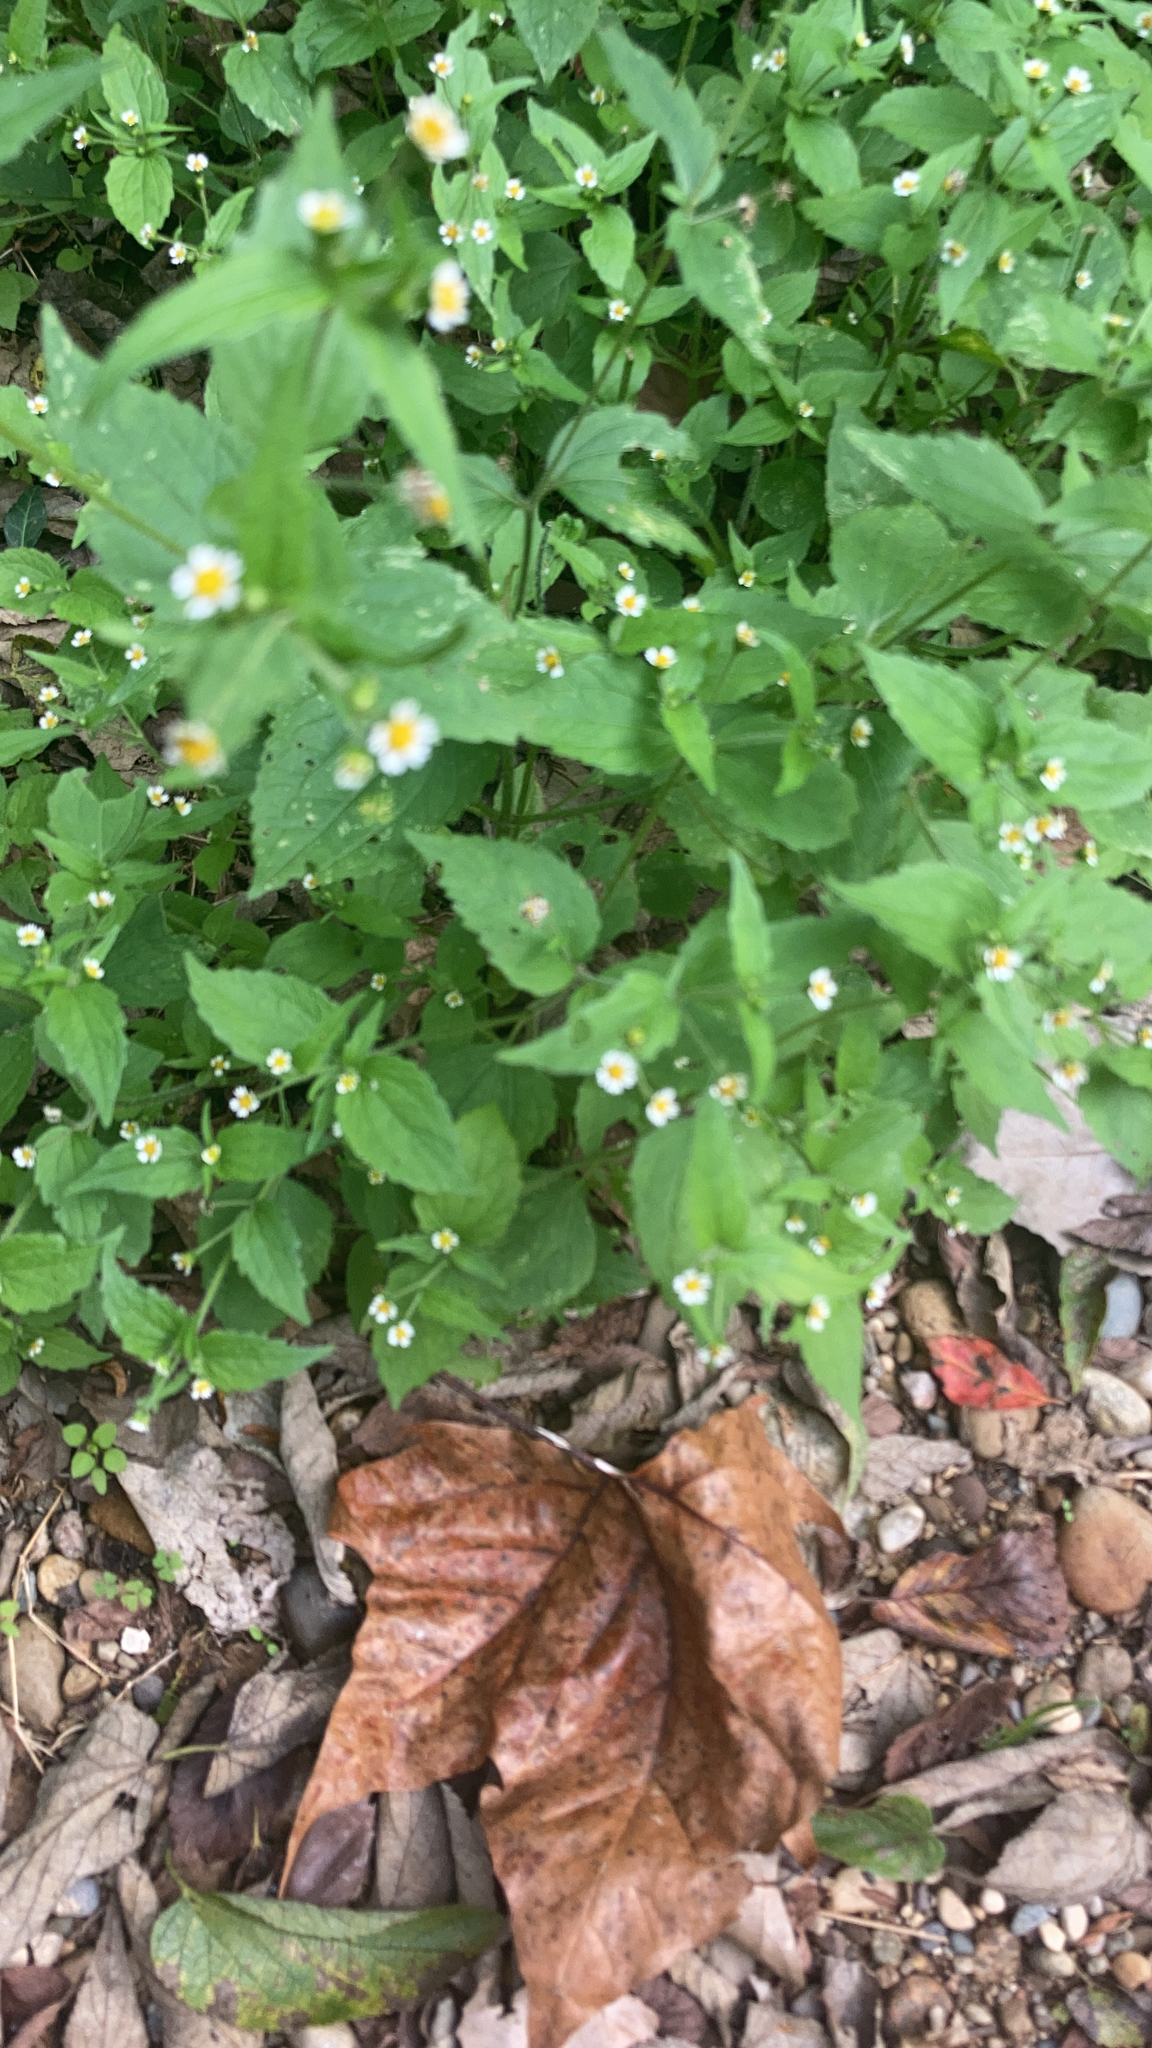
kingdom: Plantae
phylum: Tracheophyta
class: Magnoliopsida
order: Asterales
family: Asteraceae
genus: Galinsoga
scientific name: Galinsoga quadriradiata
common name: Shaggy soldier
